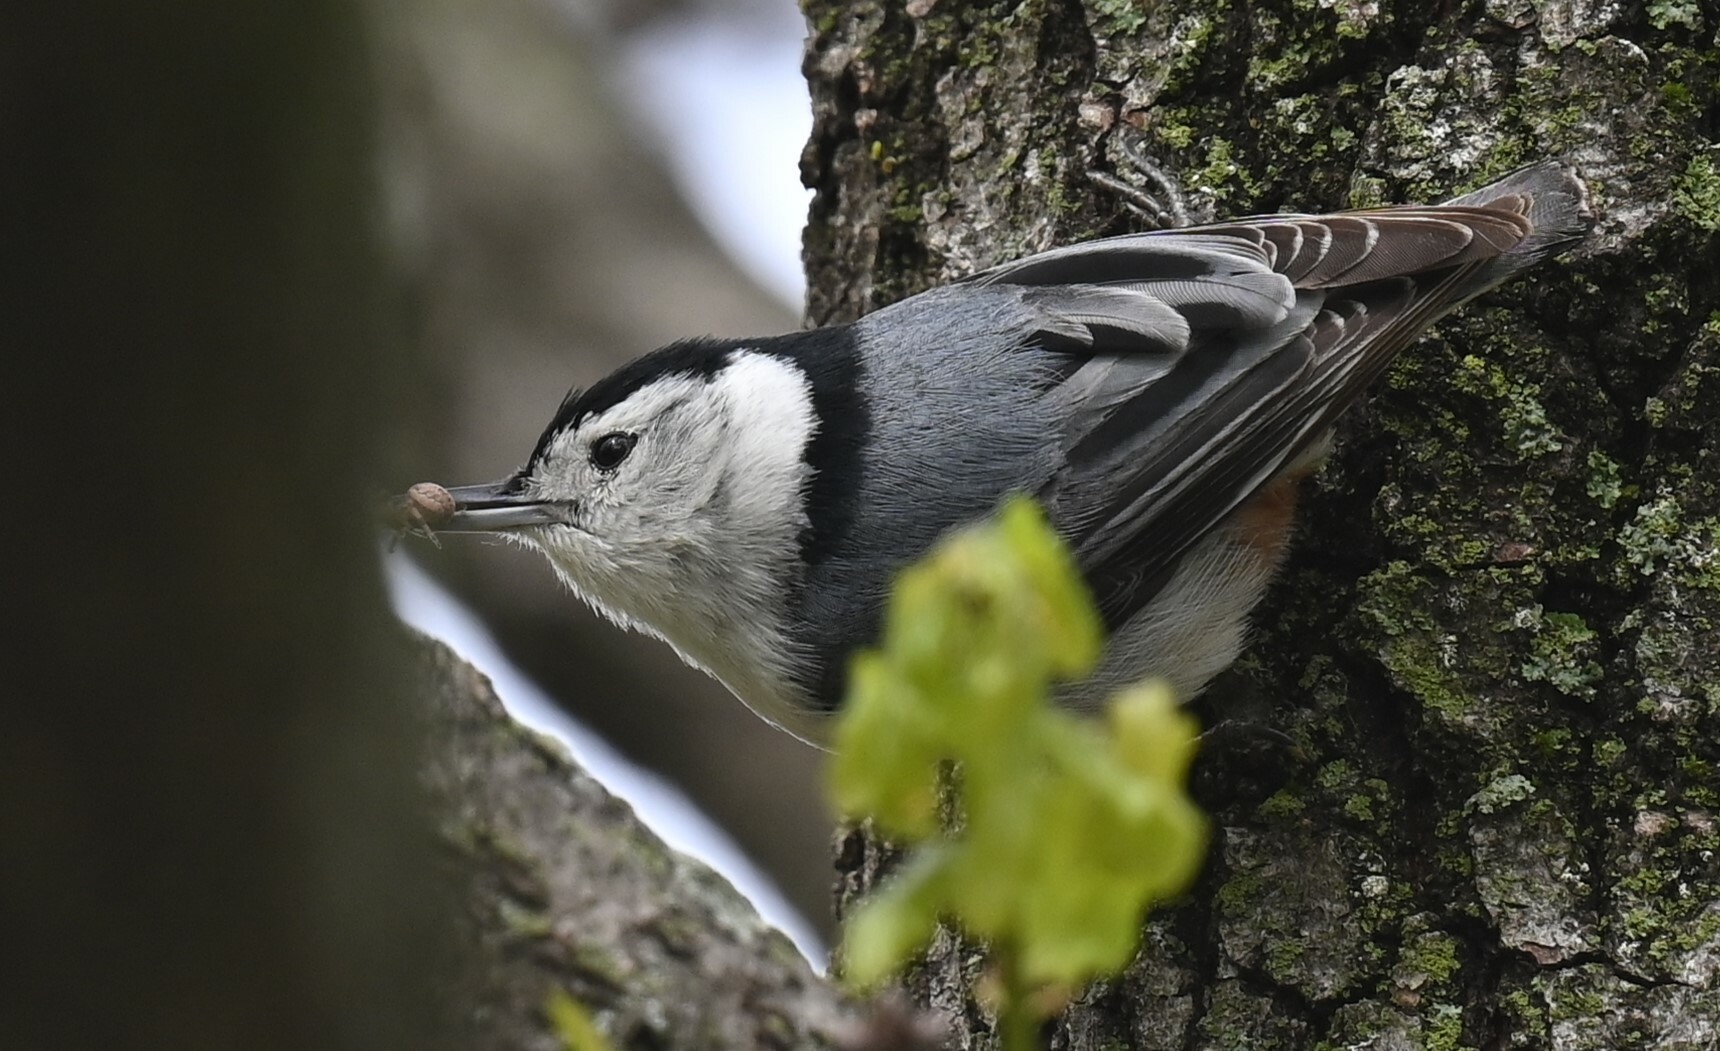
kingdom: Animalia
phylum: Chordata
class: Aves
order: Passeriformes
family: Sittidae
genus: Sitta
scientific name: Sitta carolinensis
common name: White-breasted nuthatch
